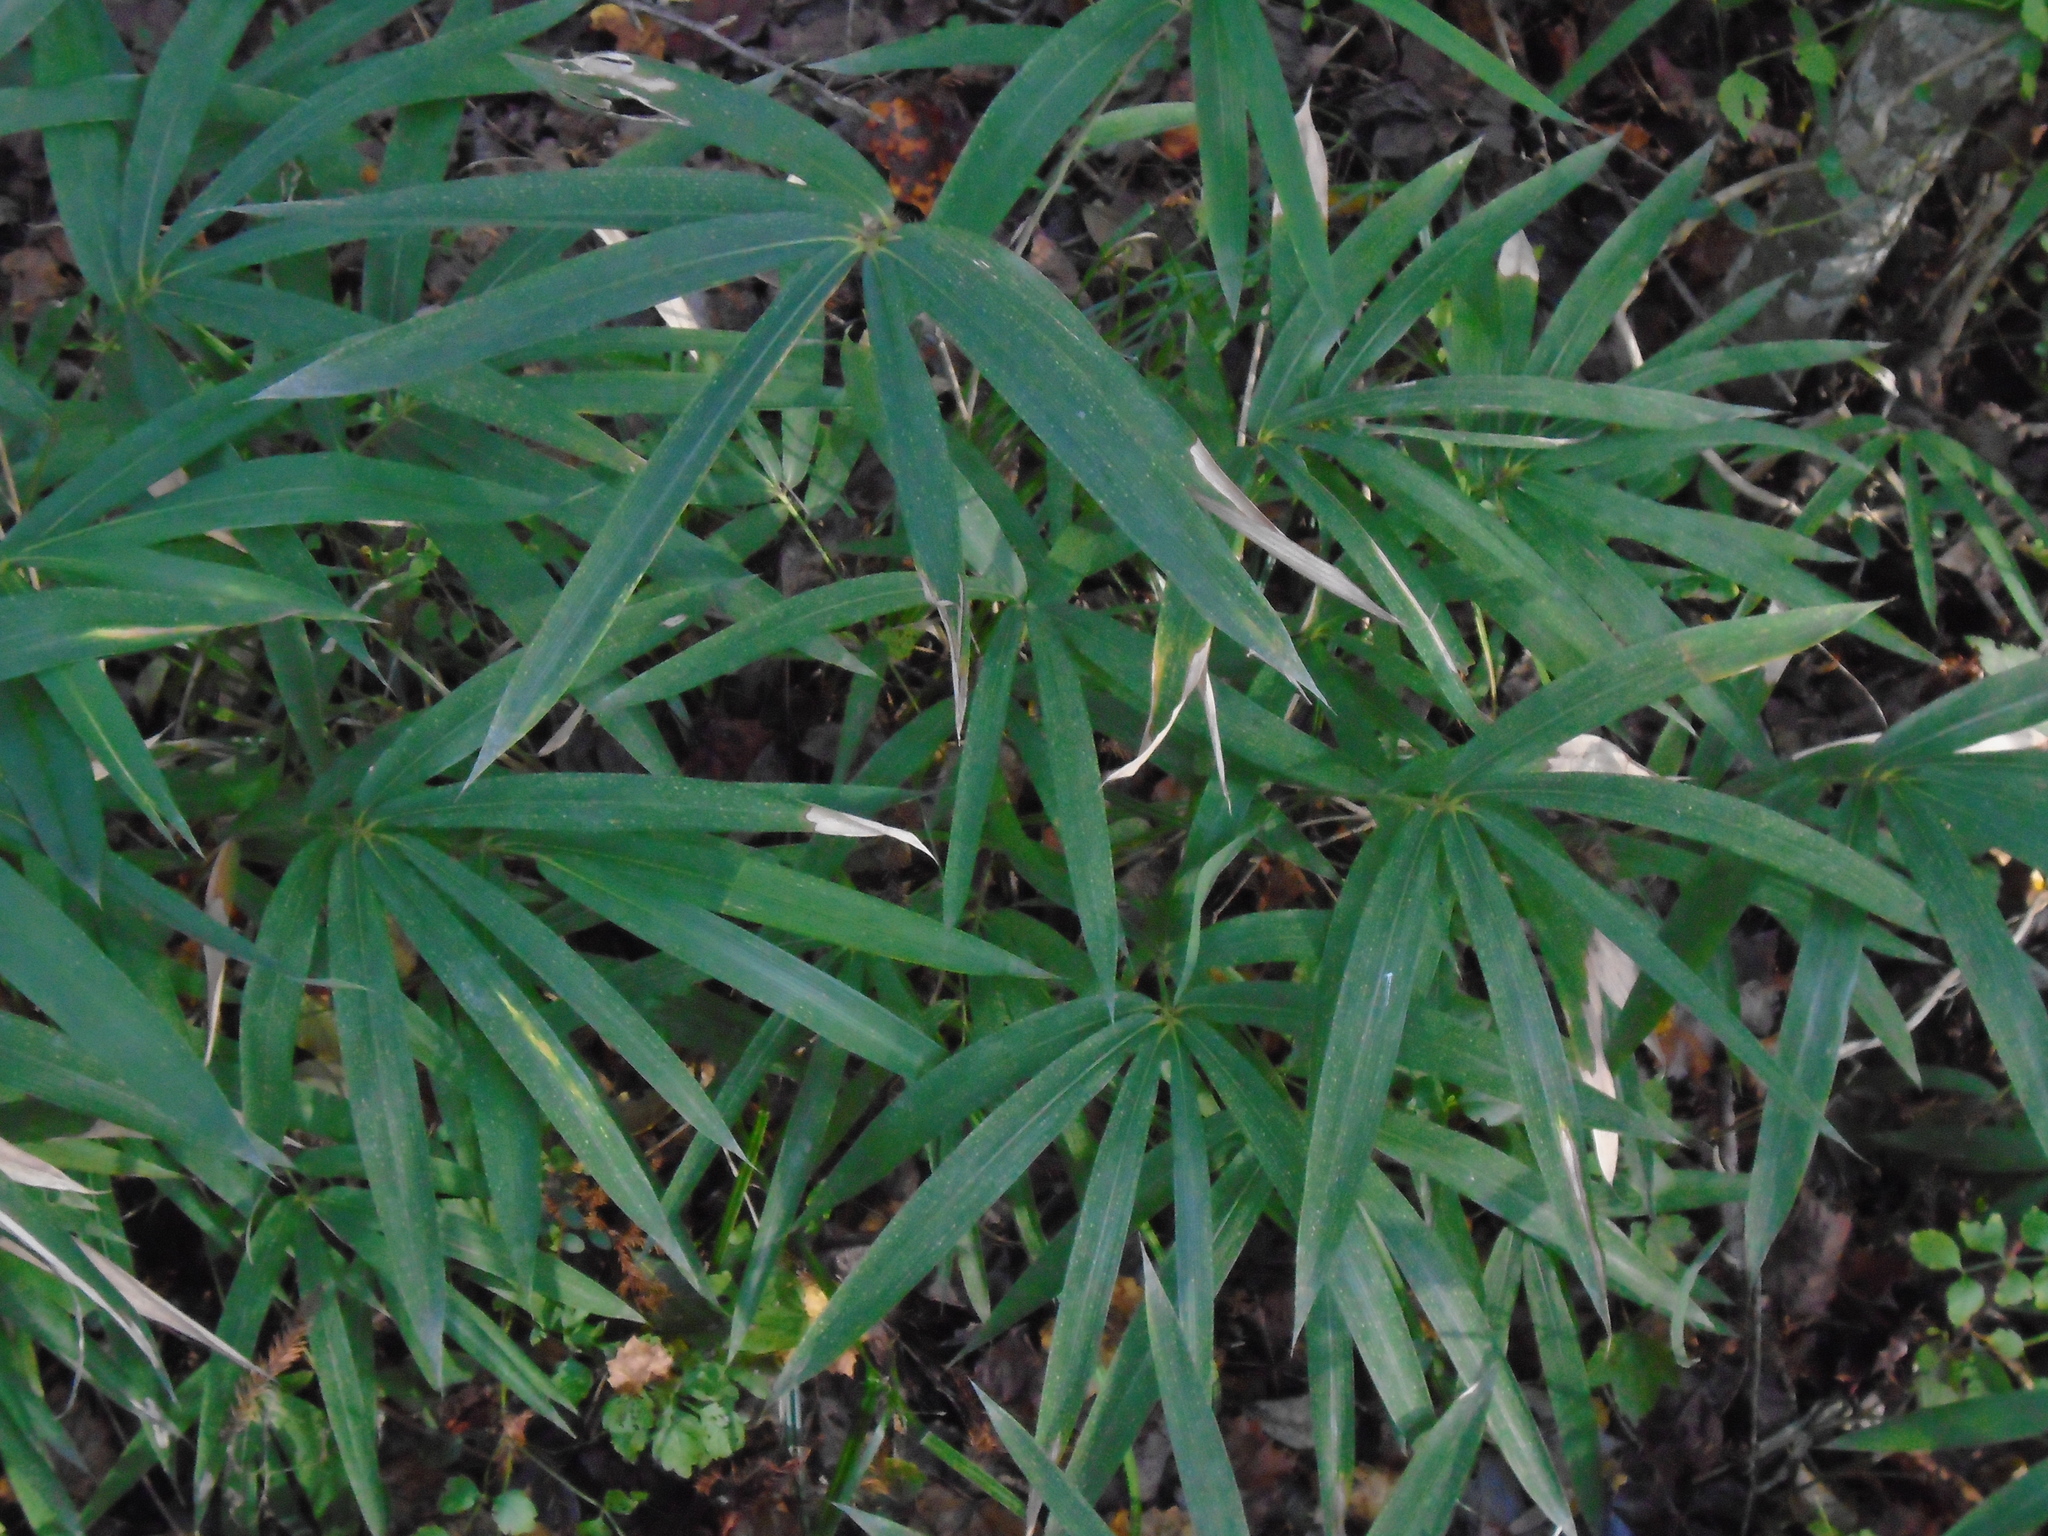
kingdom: Plantae
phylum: Tracheophyta
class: Liliopsida
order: Poales
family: Poaceae
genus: Arundinaria
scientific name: Arundinaria tecta
